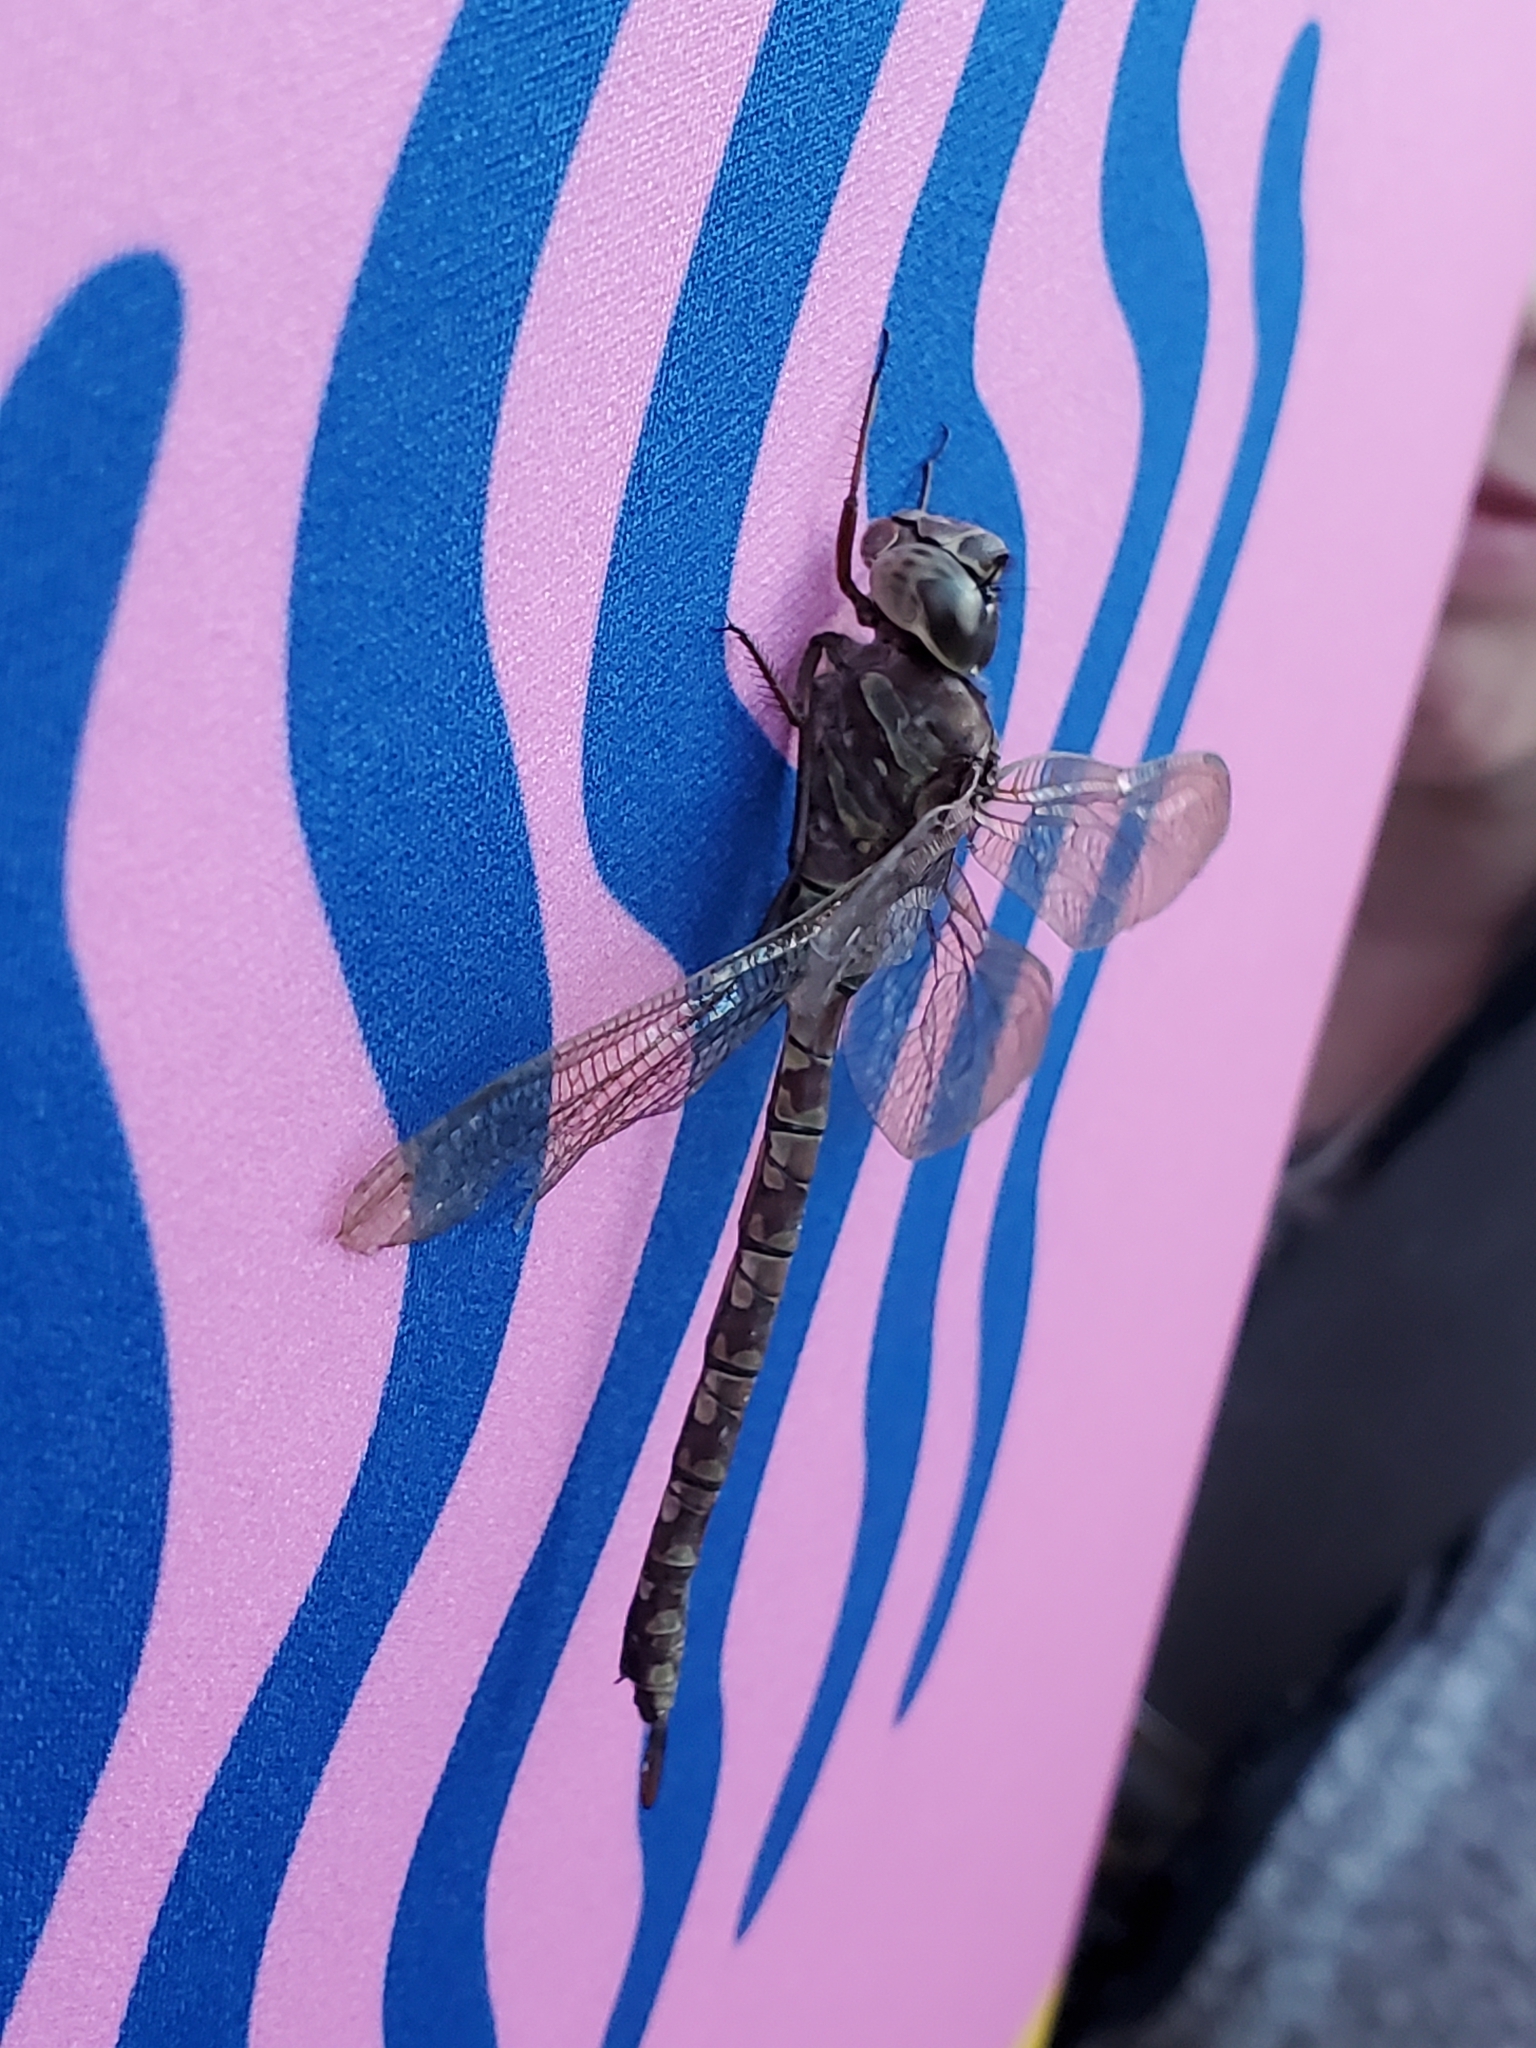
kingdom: Animalia
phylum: Arthropoda
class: Insecta
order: Odonata
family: Aeshnidae
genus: Aeshna
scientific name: Aeshna canadensis
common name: Canada darner
